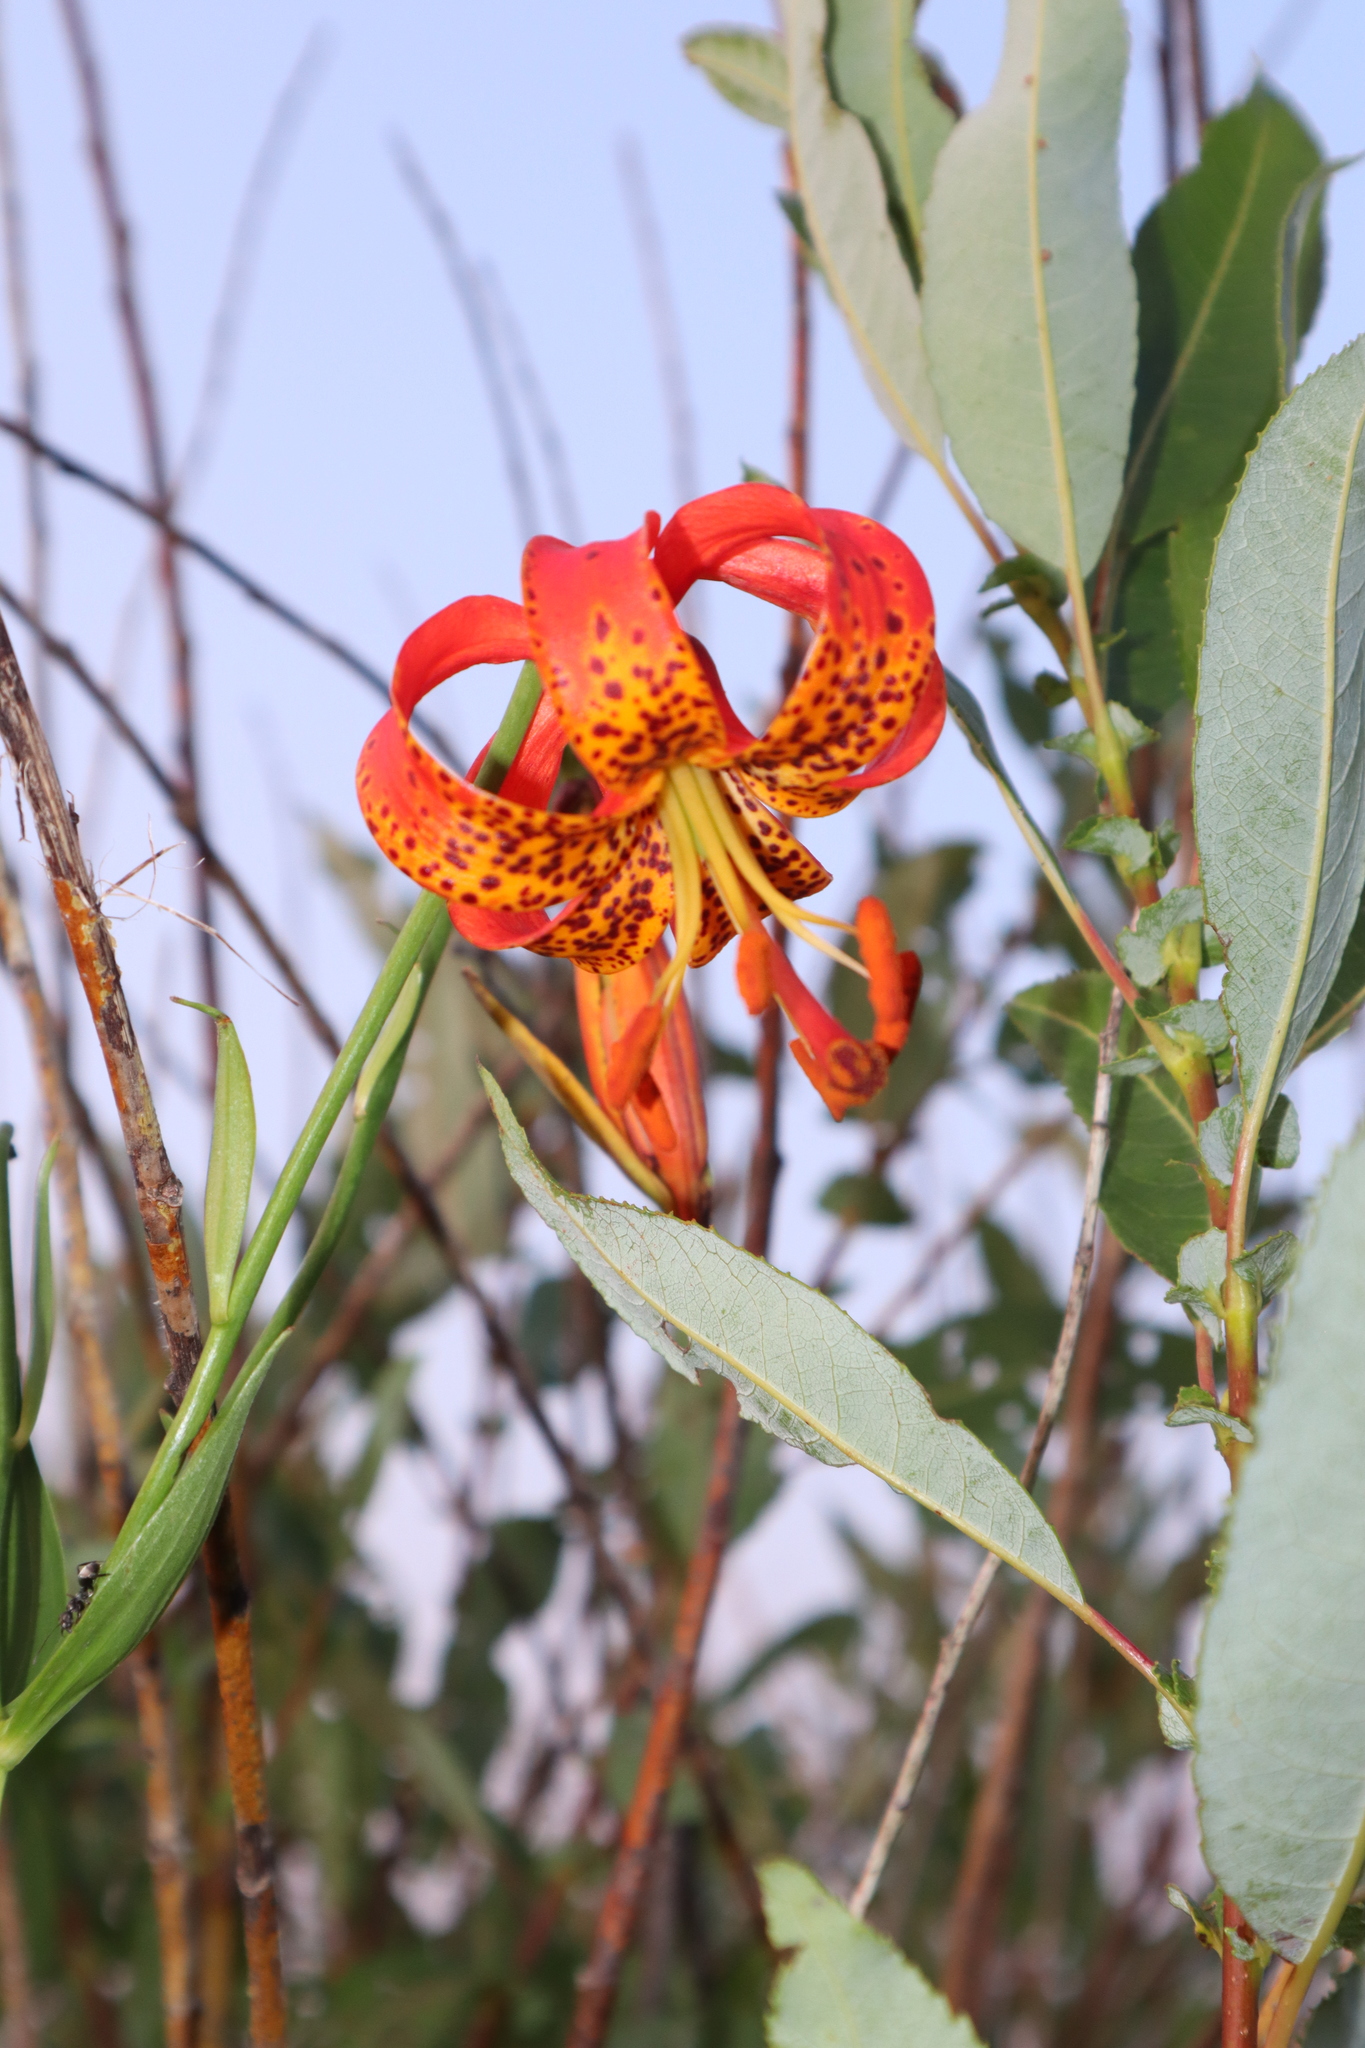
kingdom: Plantae
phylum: Tracheophyta
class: Liliopsida
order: Liliales
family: Liliaceae
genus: Lilium
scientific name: Lilium michiganense
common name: Michigan lily
